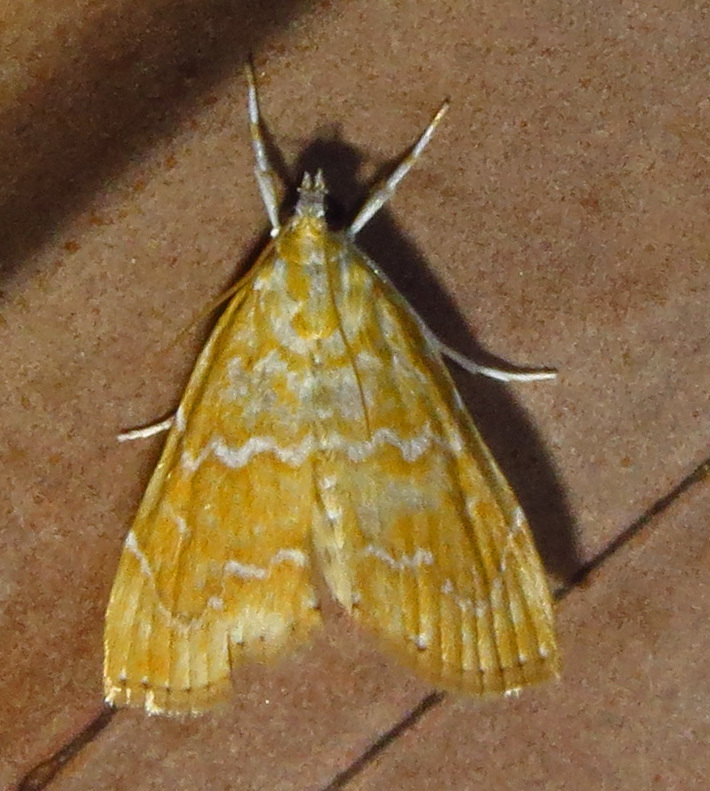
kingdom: Animalia
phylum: Arthropoda
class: Insecta
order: Lepidoptera
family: Crambidae
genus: Glaphyria
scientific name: Glaphyria sesquistrialis
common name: White-roped glaphyria
